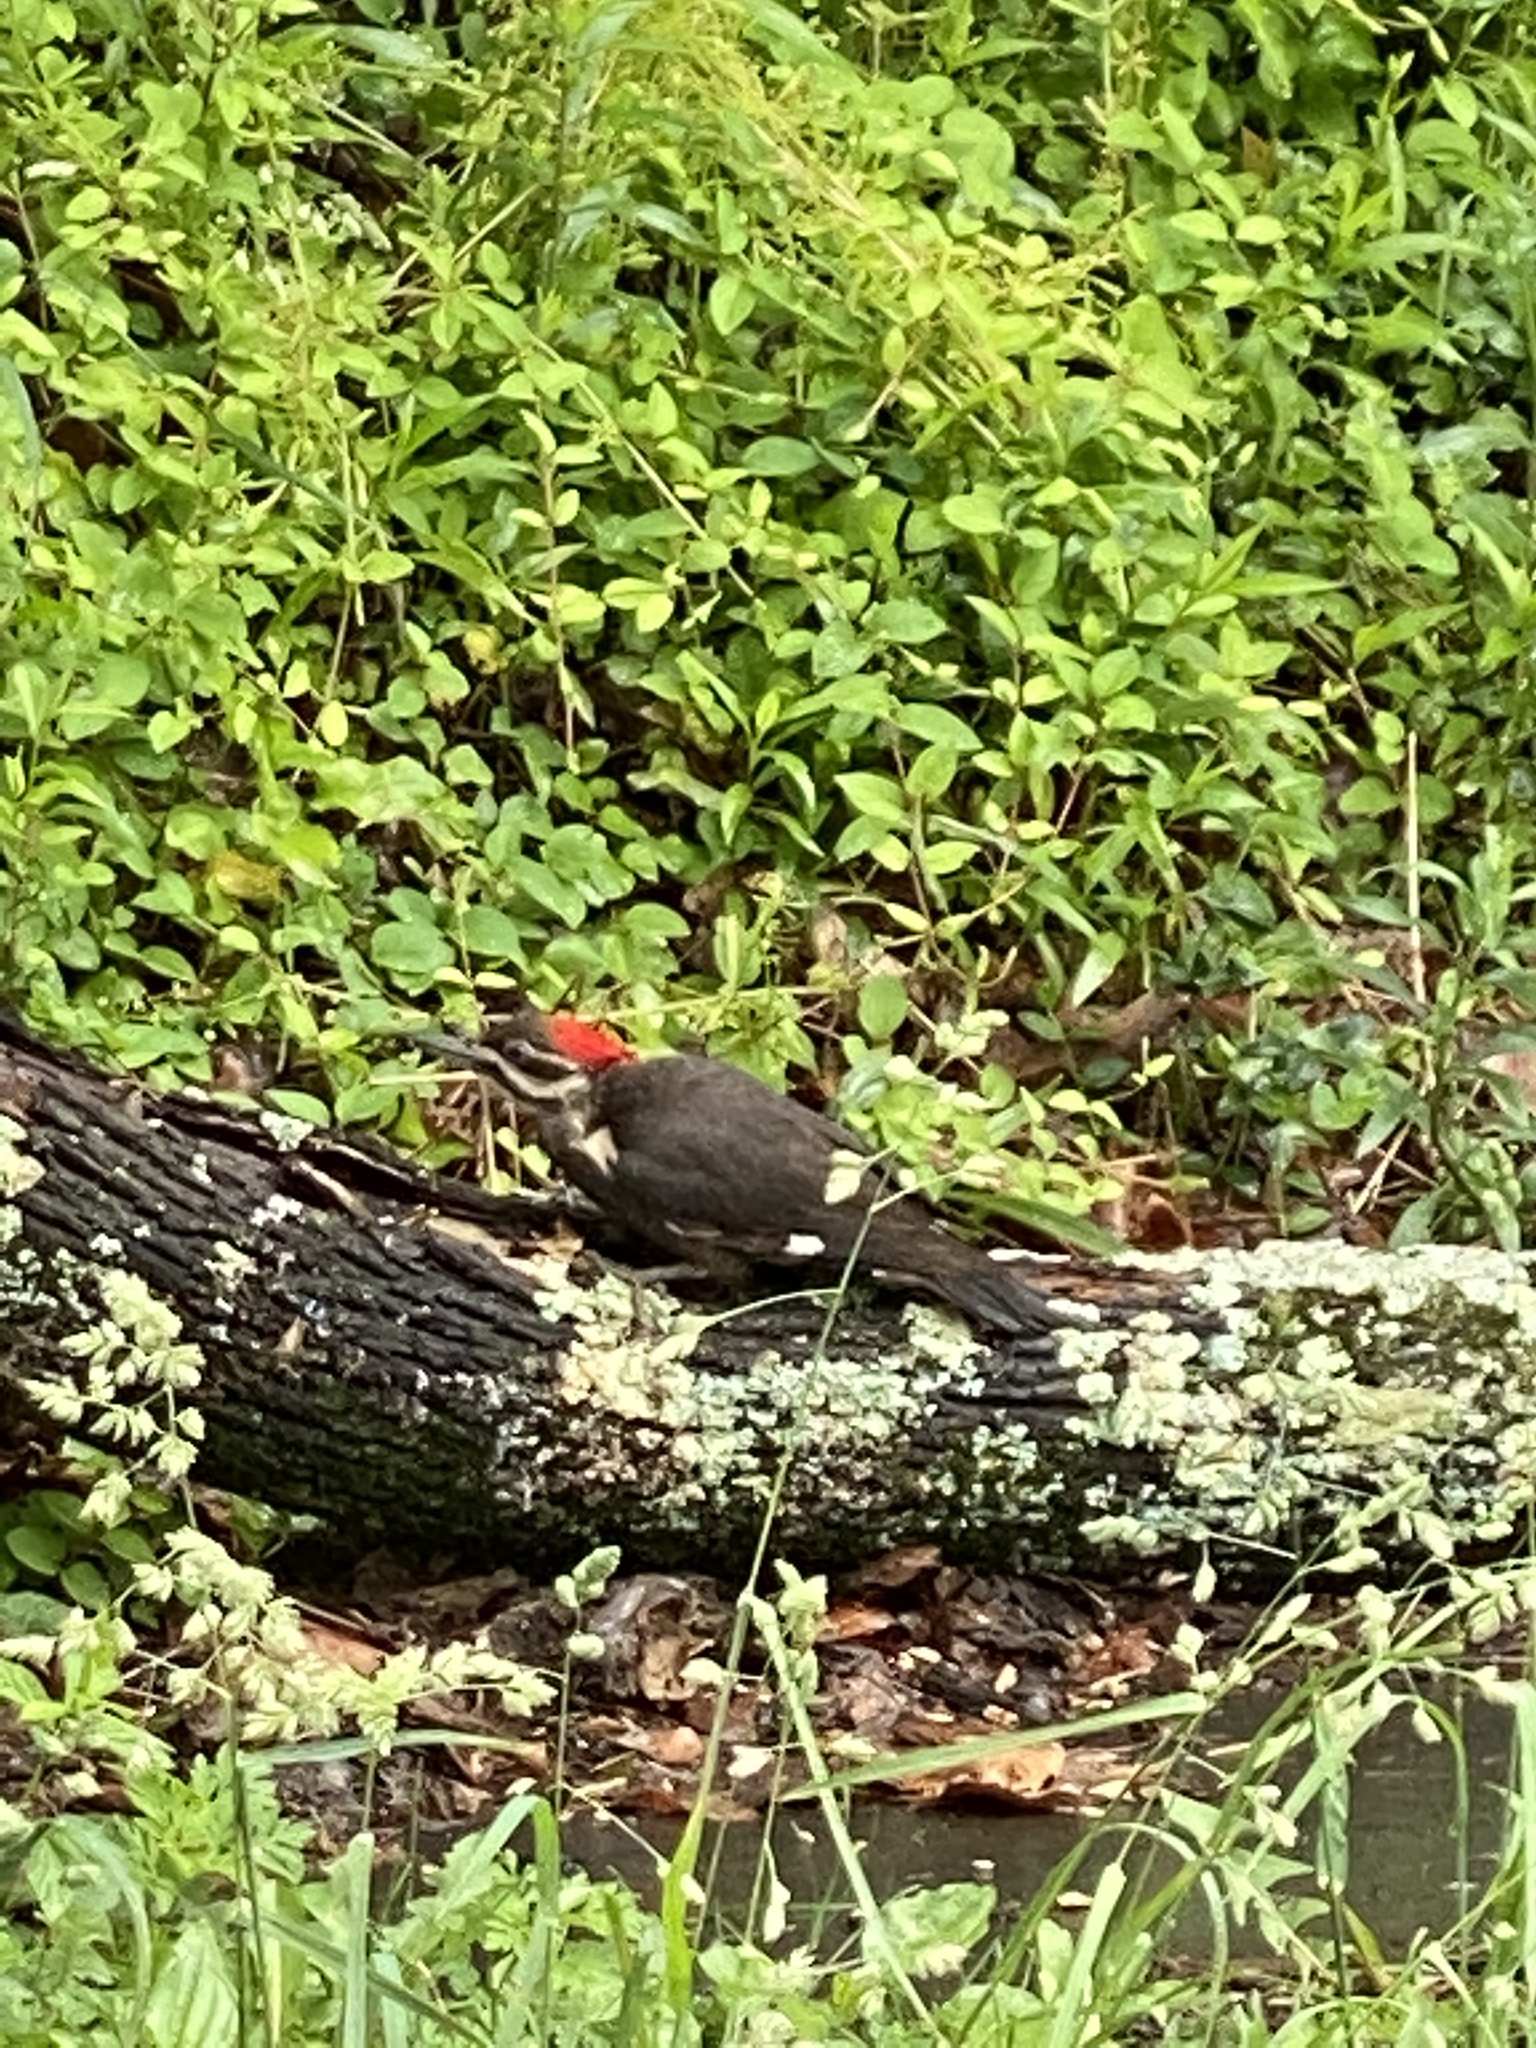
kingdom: Animalia
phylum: Chordata
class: Aves
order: Piciformes
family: Picidae
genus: Dryocopus
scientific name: Dryocopus pileatus
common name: Pileated woodpecker
